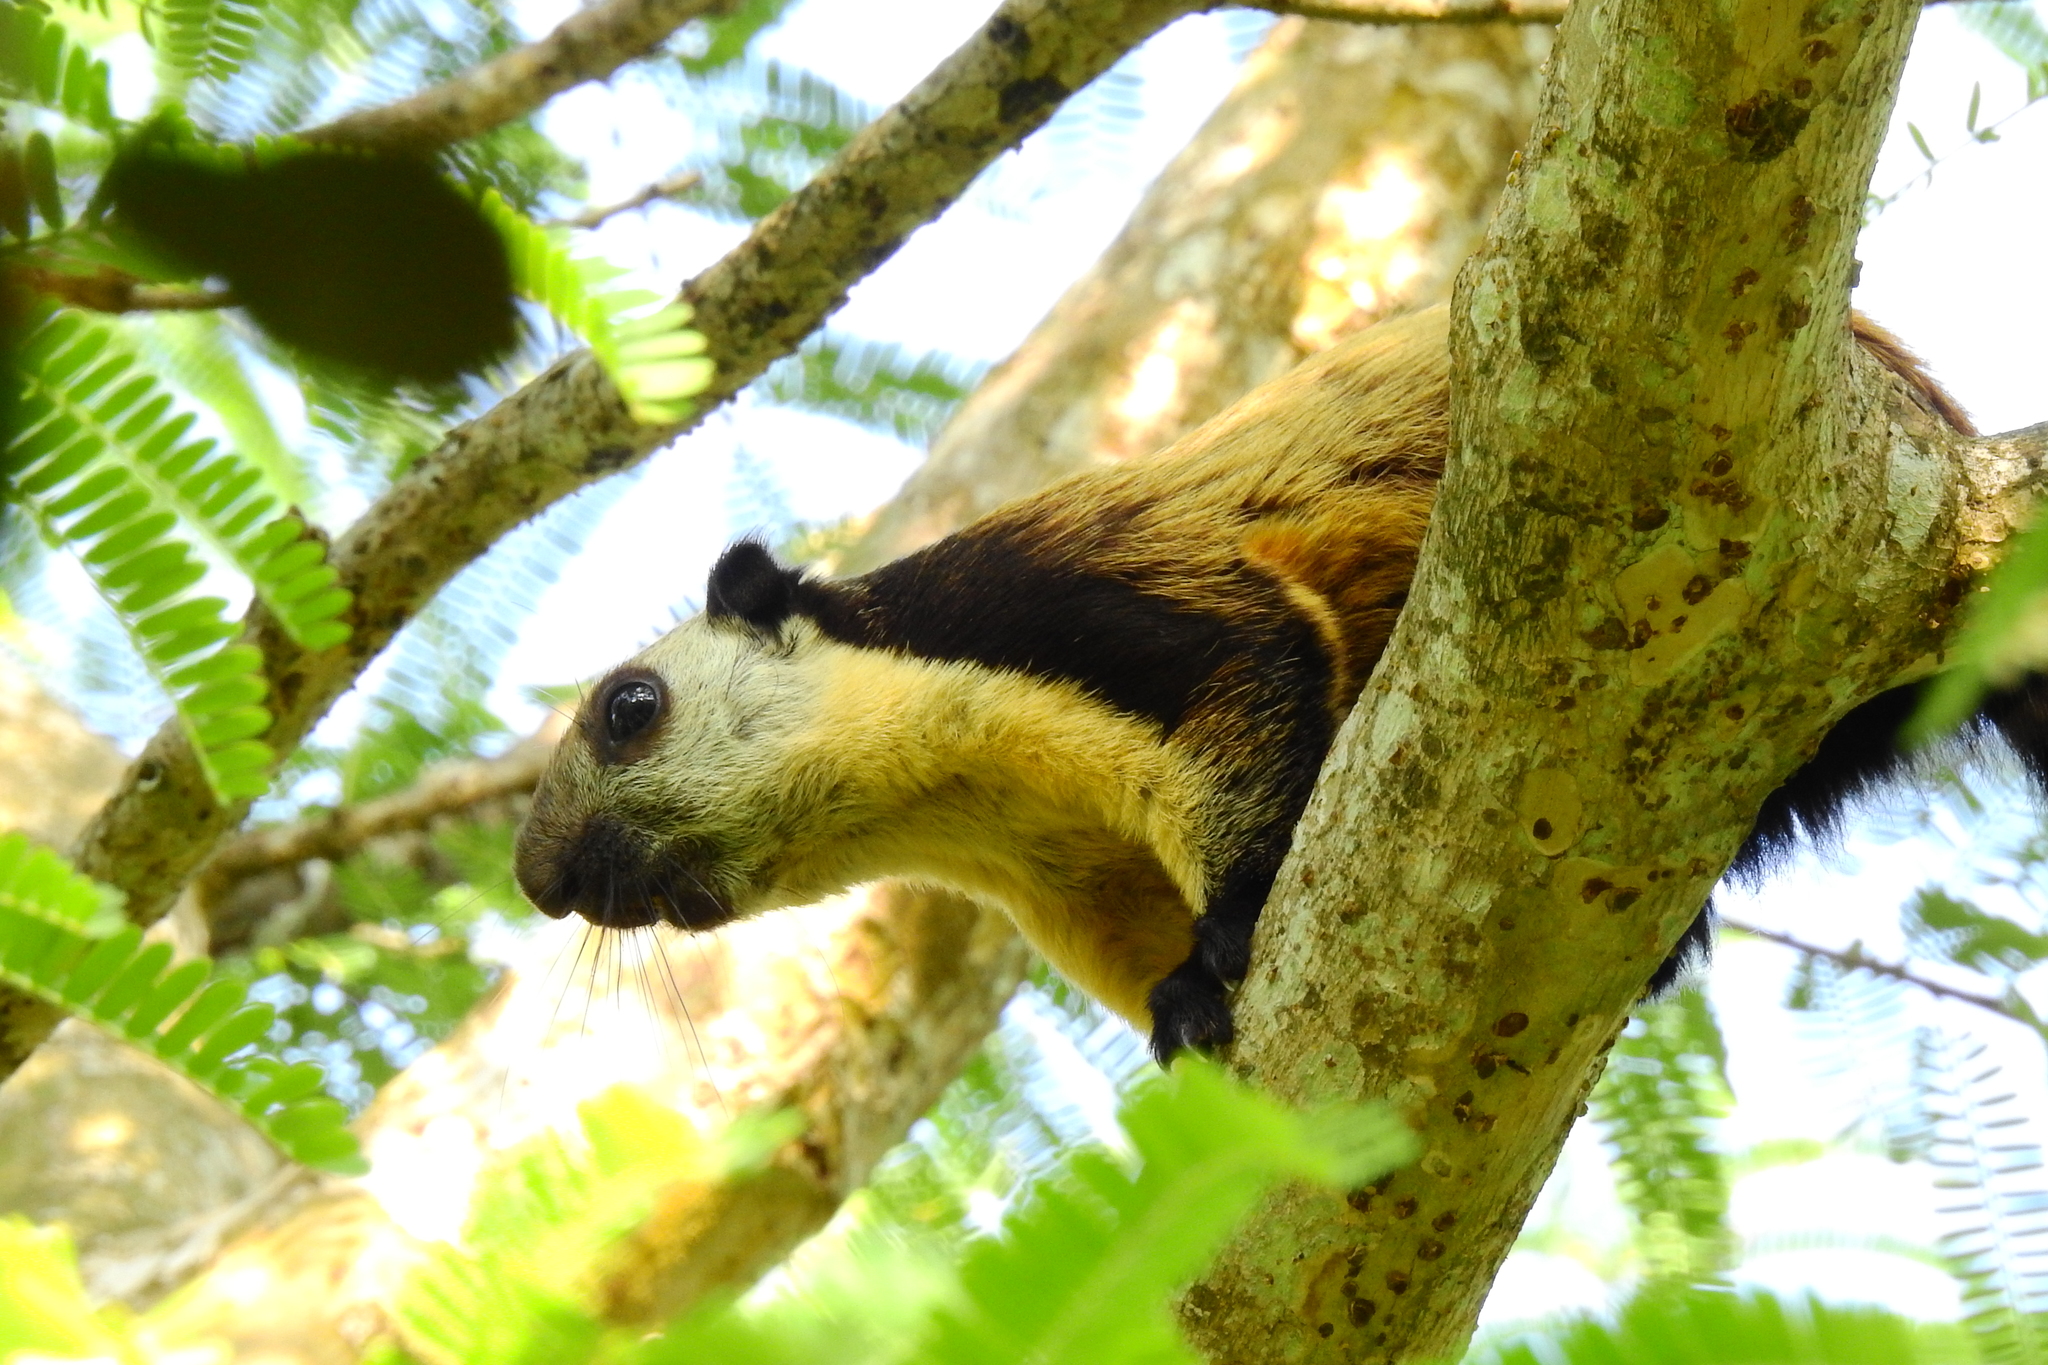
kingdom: Animalia
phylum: Chordata
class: Mammalia
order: Rodentia
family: Sciuridae
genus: Ratufa
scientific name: Ratufa bicolor
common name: Black giant squirrel
